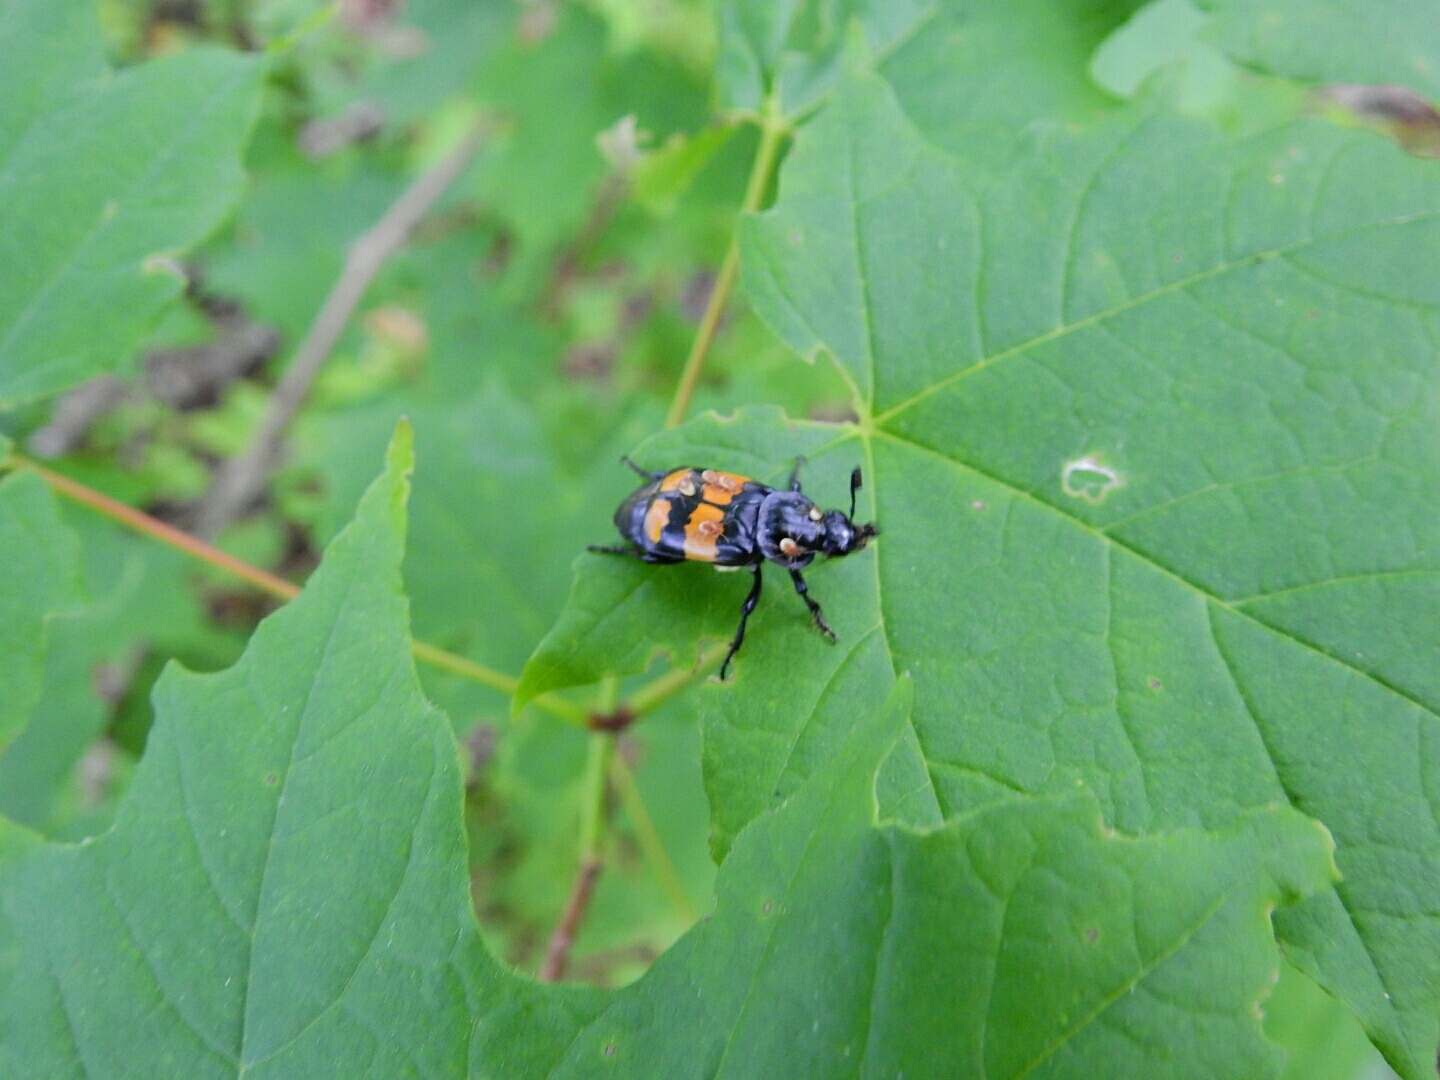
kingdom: Animalia
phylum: Arthropoda
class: Insecta
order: Coleoptera
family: Staphylinidae
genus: Nicrophorus
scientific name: Nicrophorus defodiens
